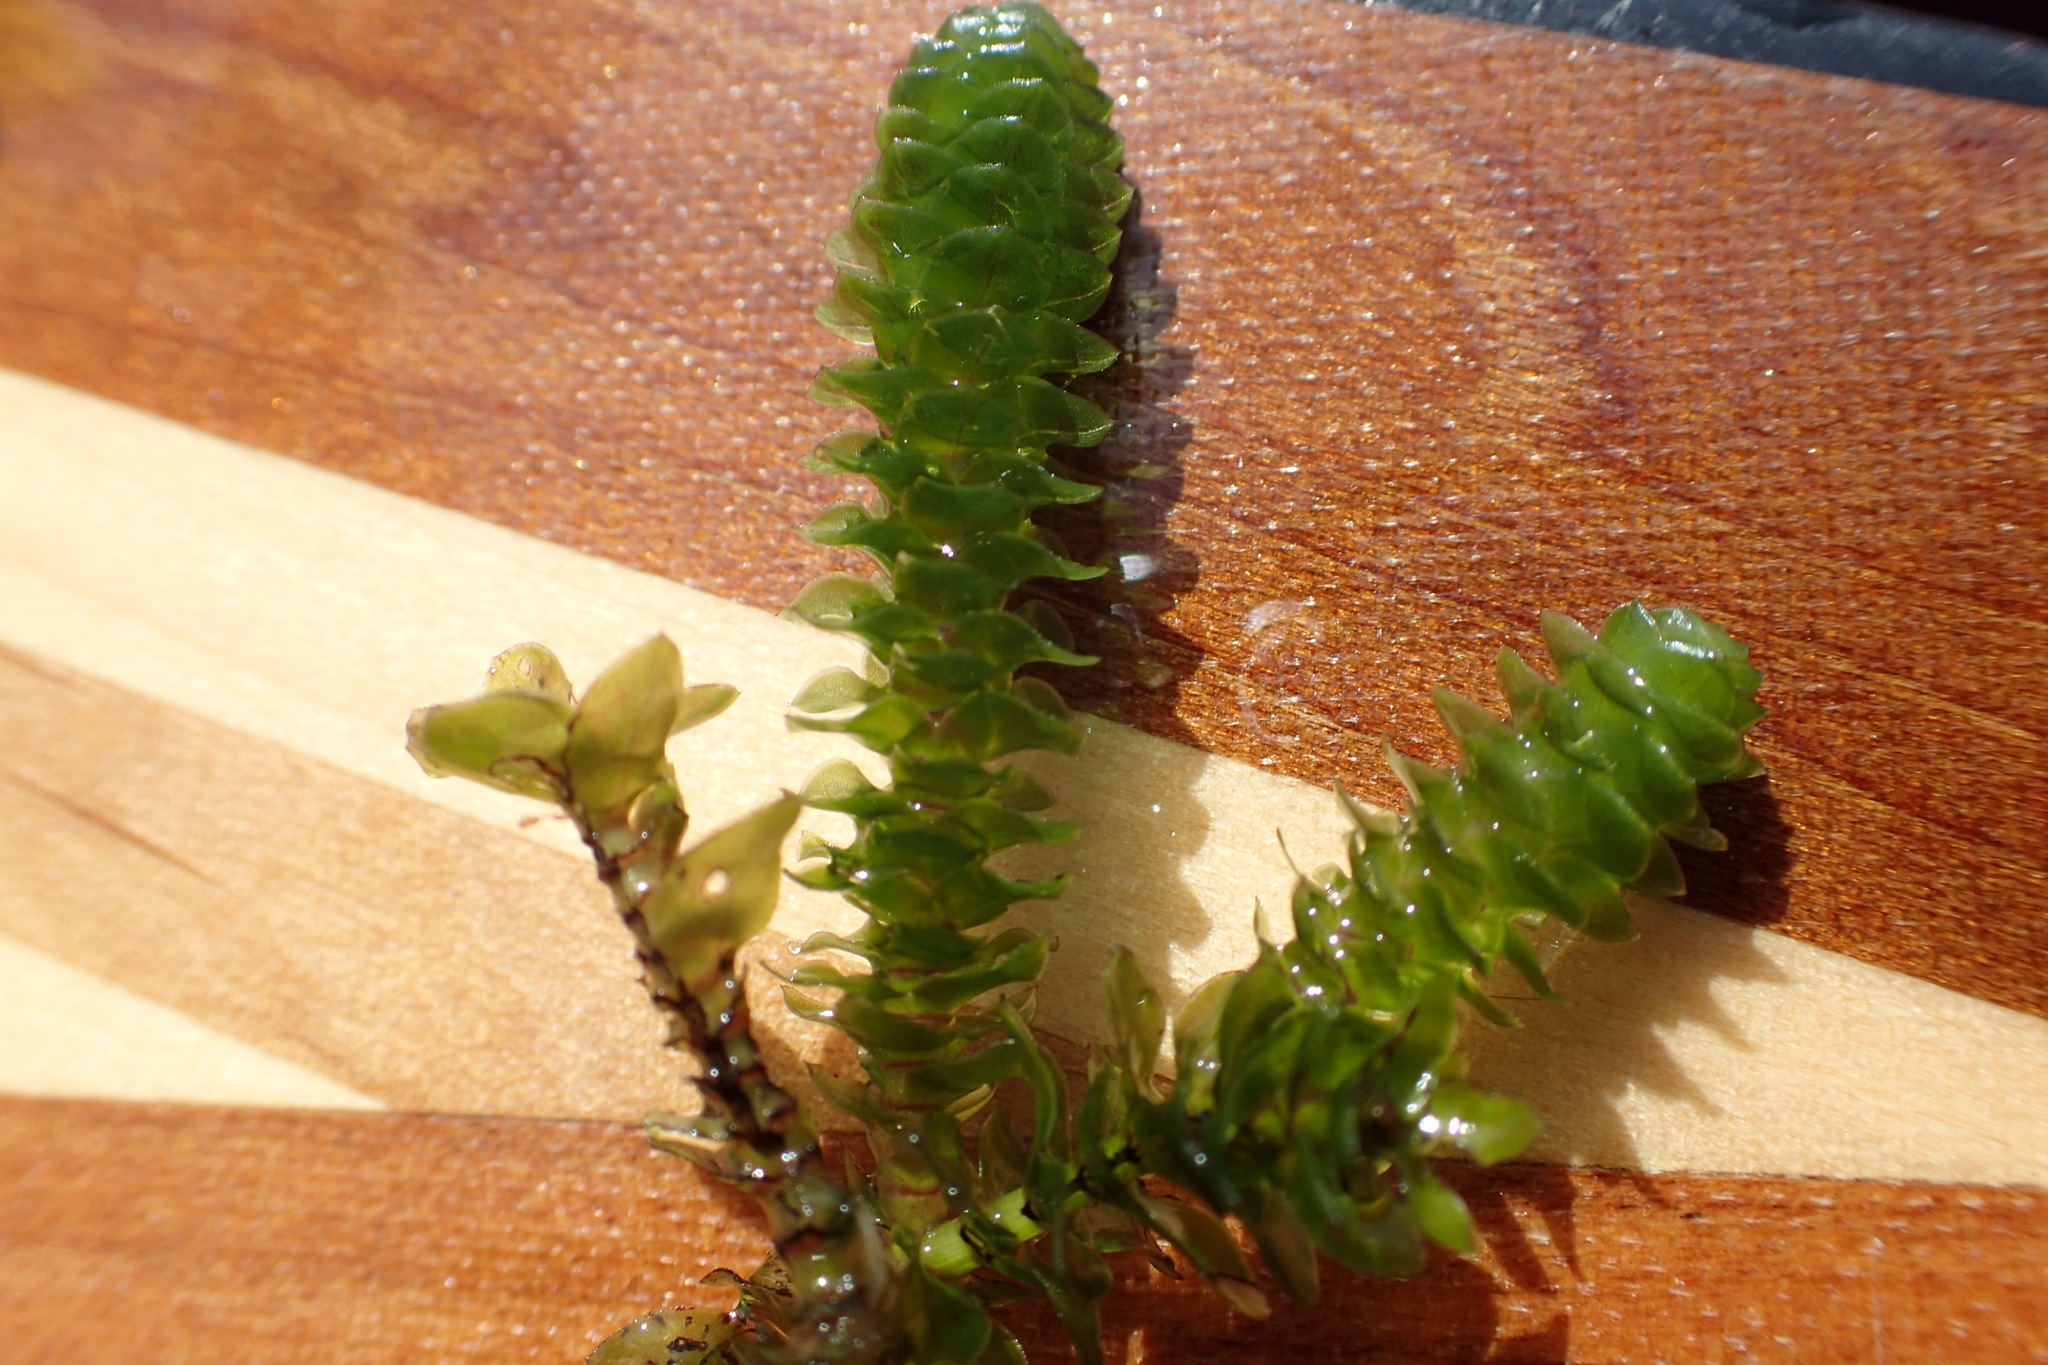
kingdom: Plantae
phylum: Tracheophyta
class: Liliopsida
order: Alismatales
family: Hydrocharitaceae
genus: Elodea
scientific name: Elodea canadensis
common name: Canadian waterweed
